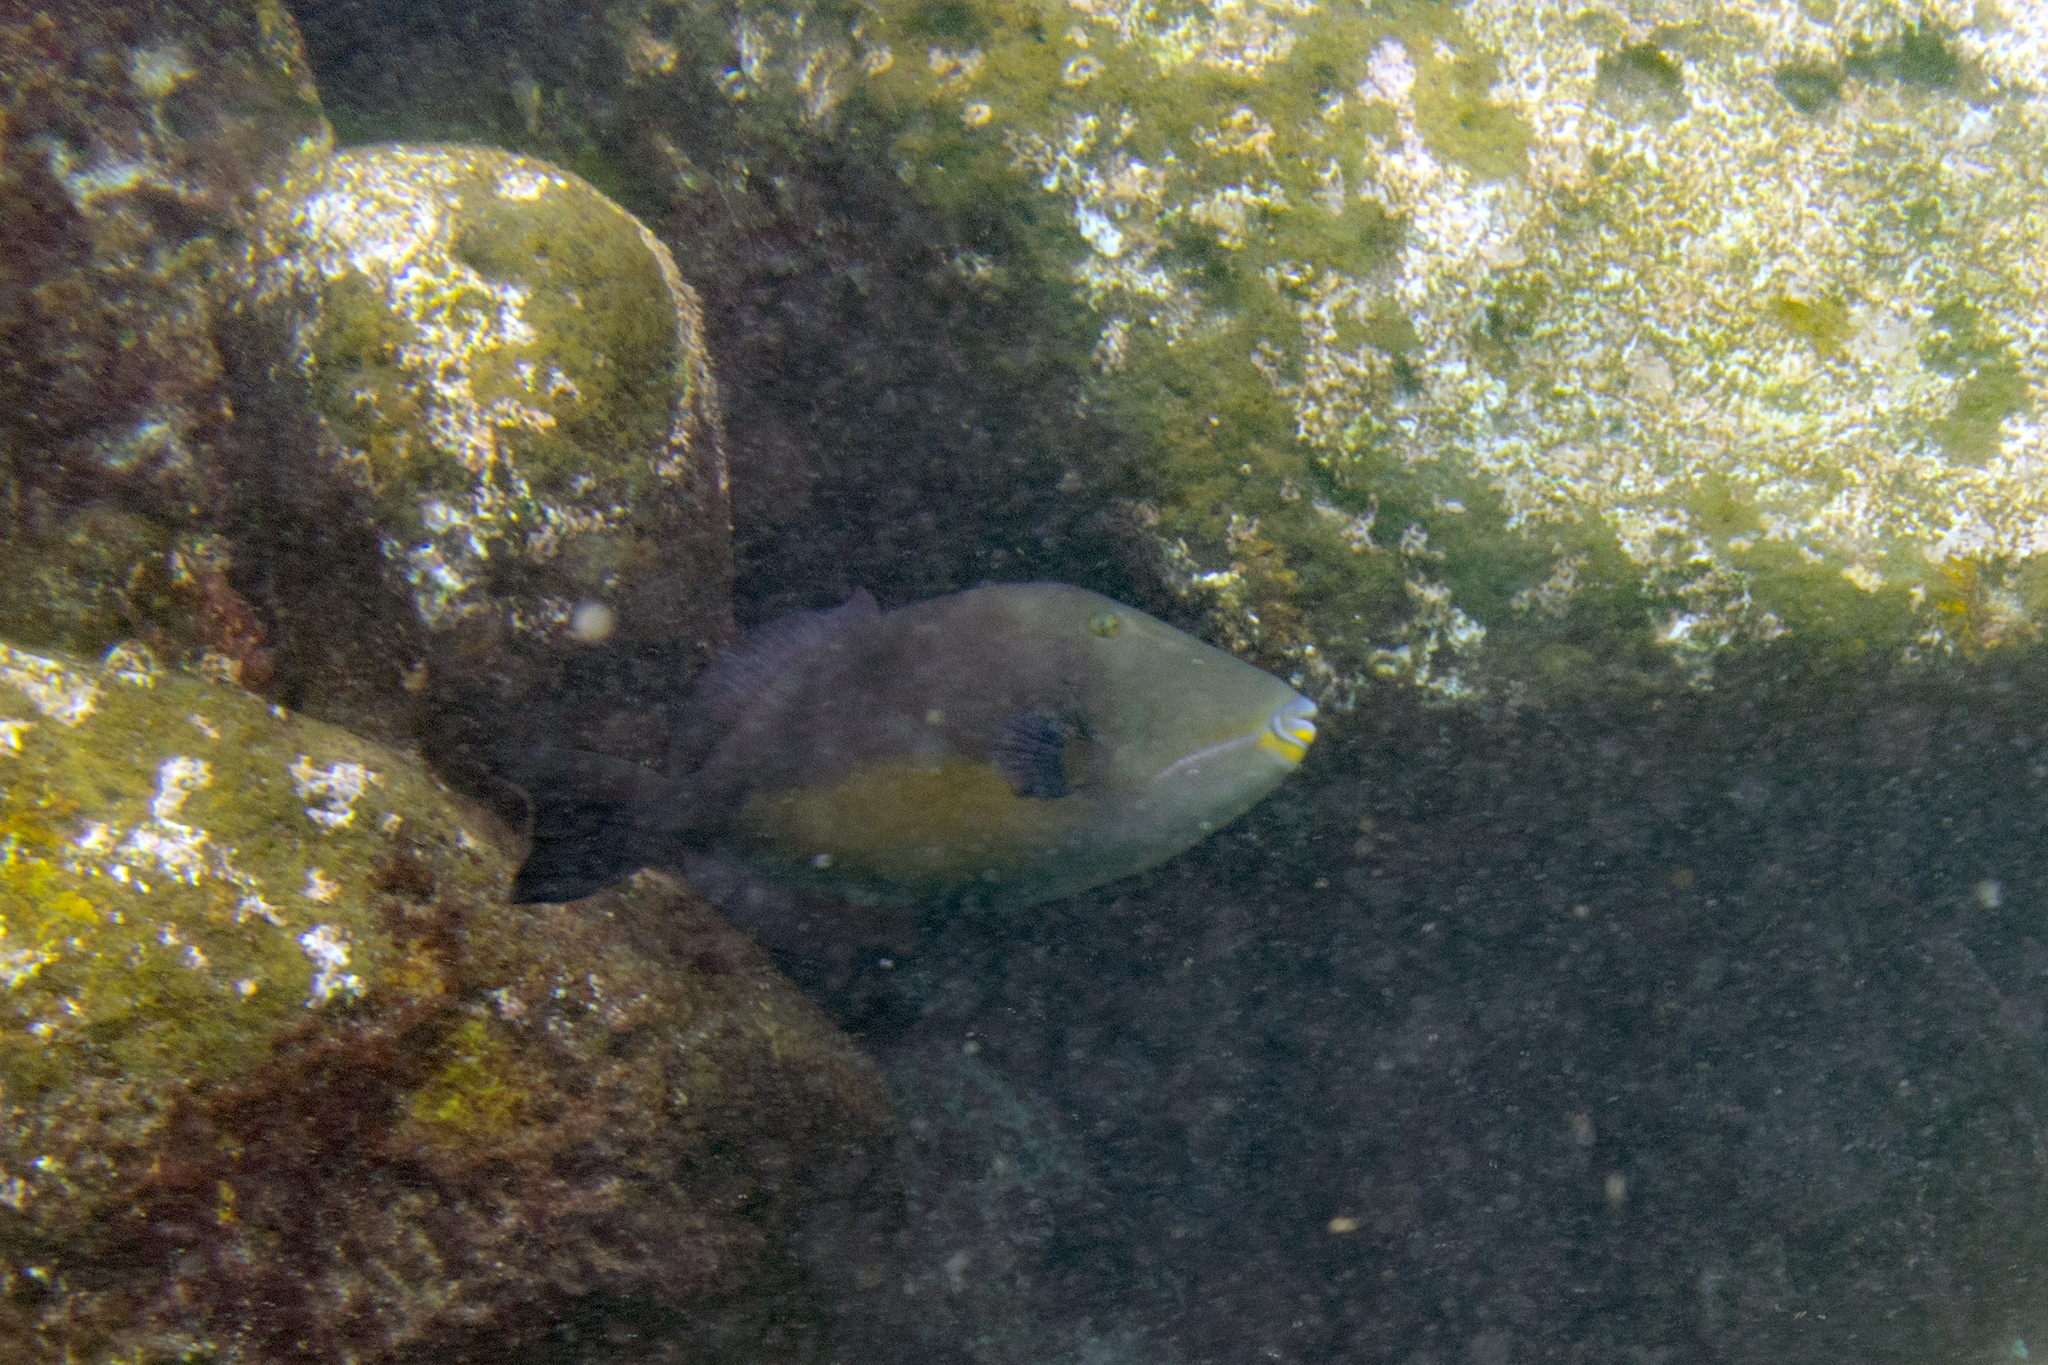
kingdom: Animalia
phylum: Chordata
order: Tetraodontiformes
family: Balistidae
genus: Sufflamen
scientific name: Sufflamen verres
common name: Orangeside triggerfish
